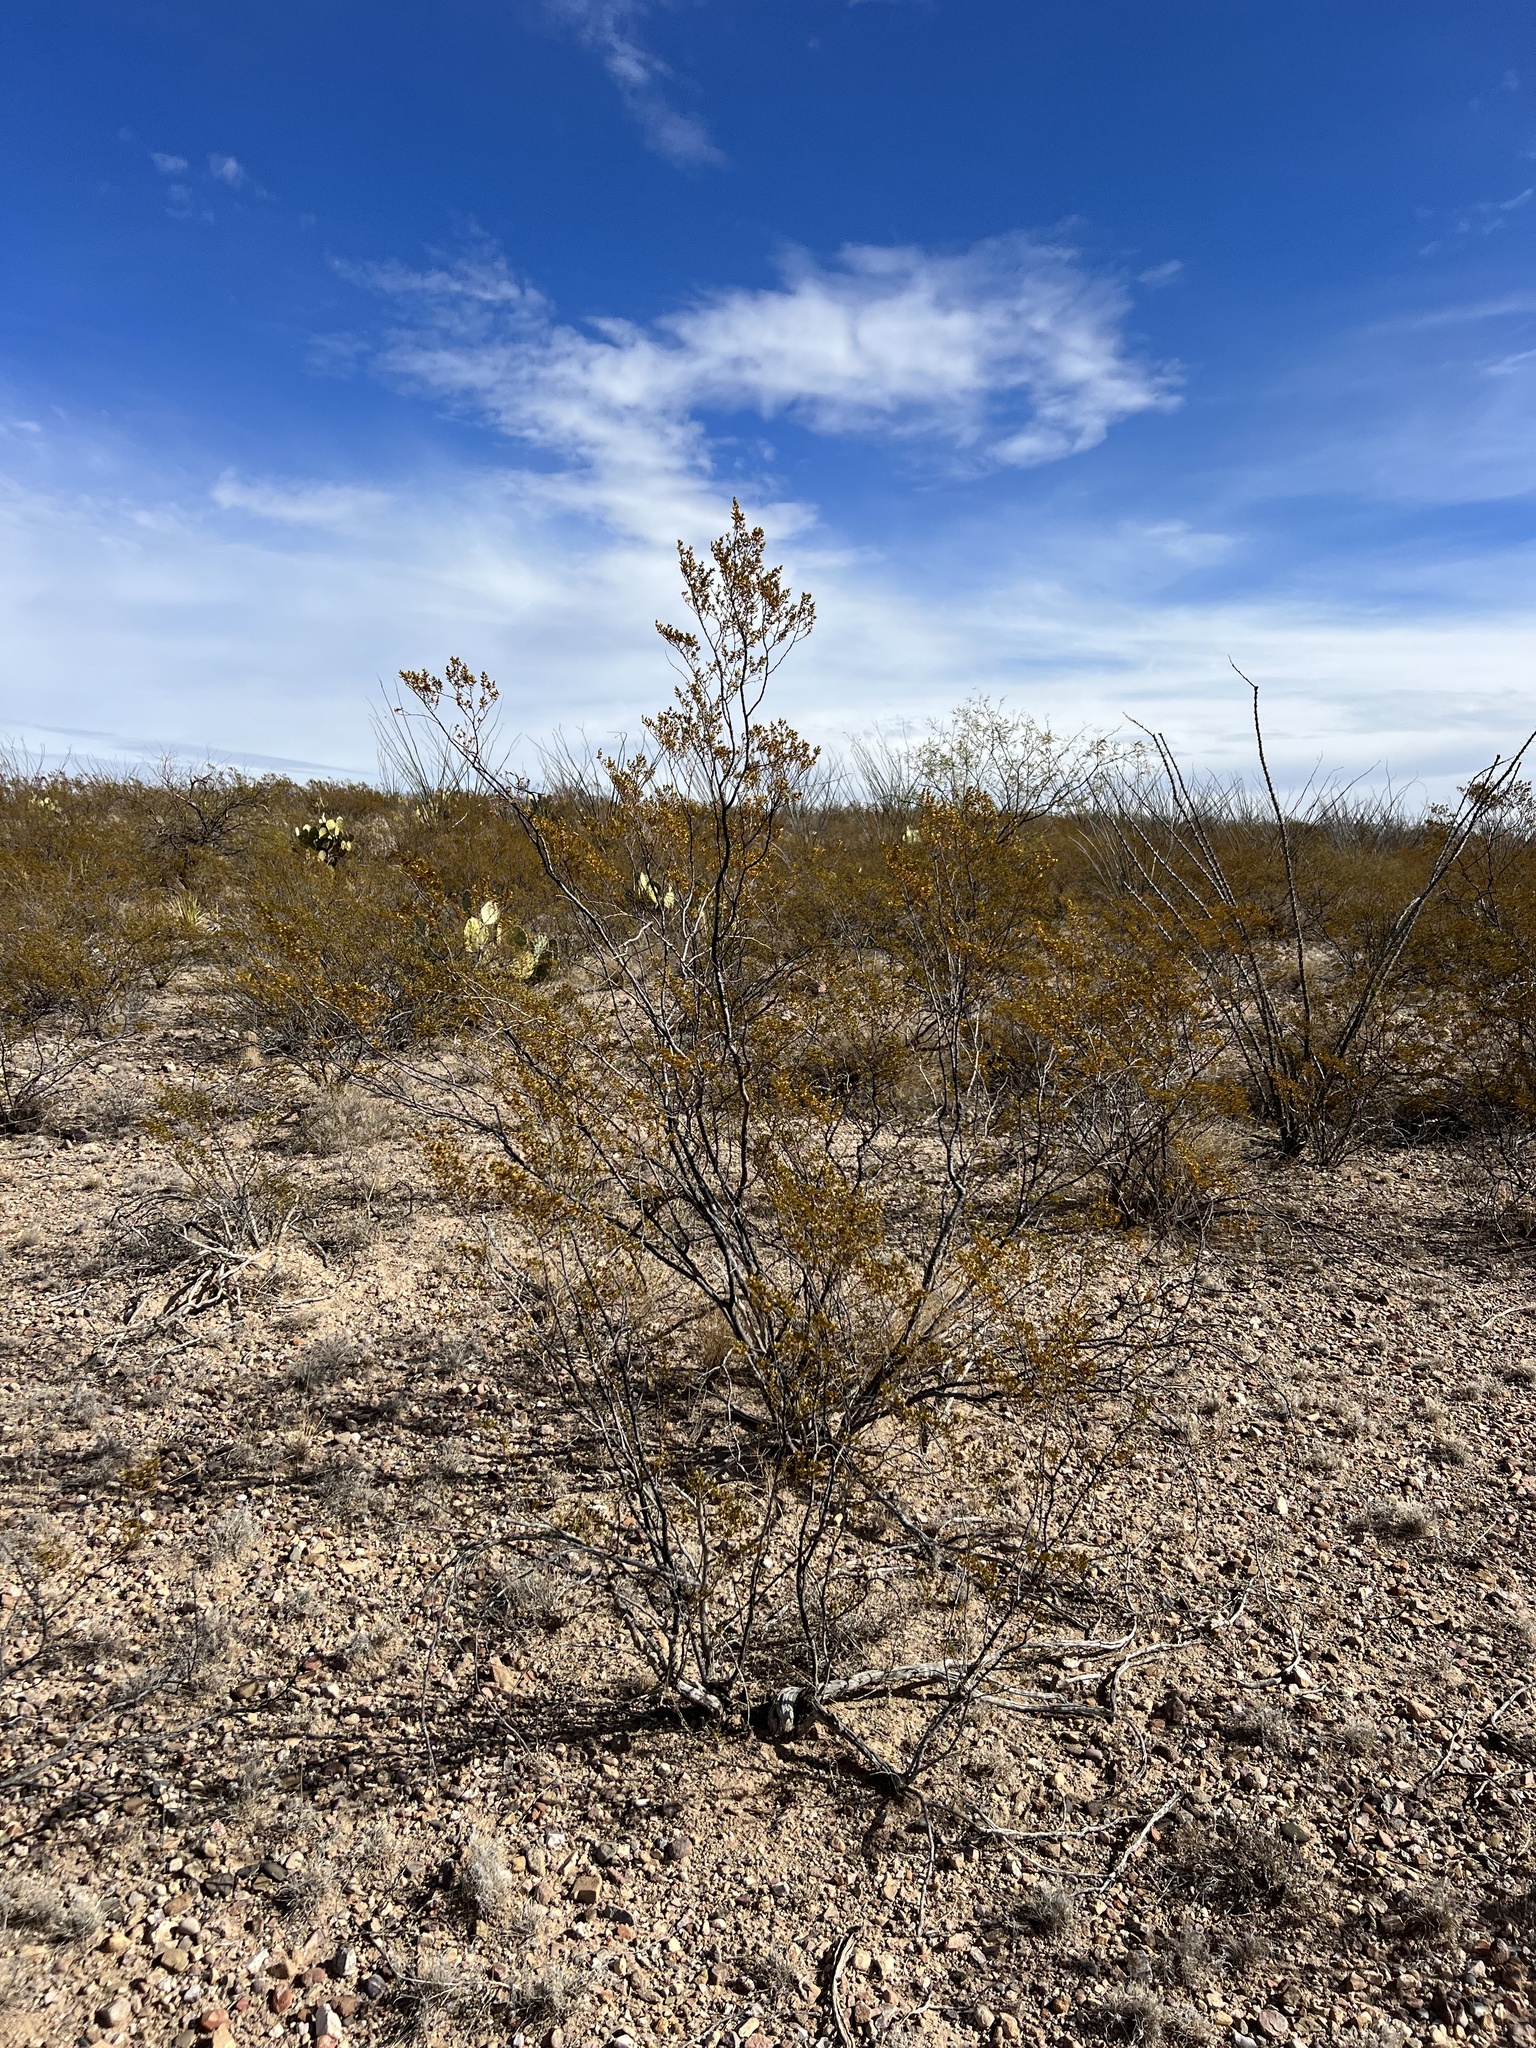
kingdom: Plantae
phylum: Tracheophyta
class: Magnoliopsida
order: Zygophyllales
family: Zygophyllaceae
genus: Larrea
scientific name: Larrea tridentata
